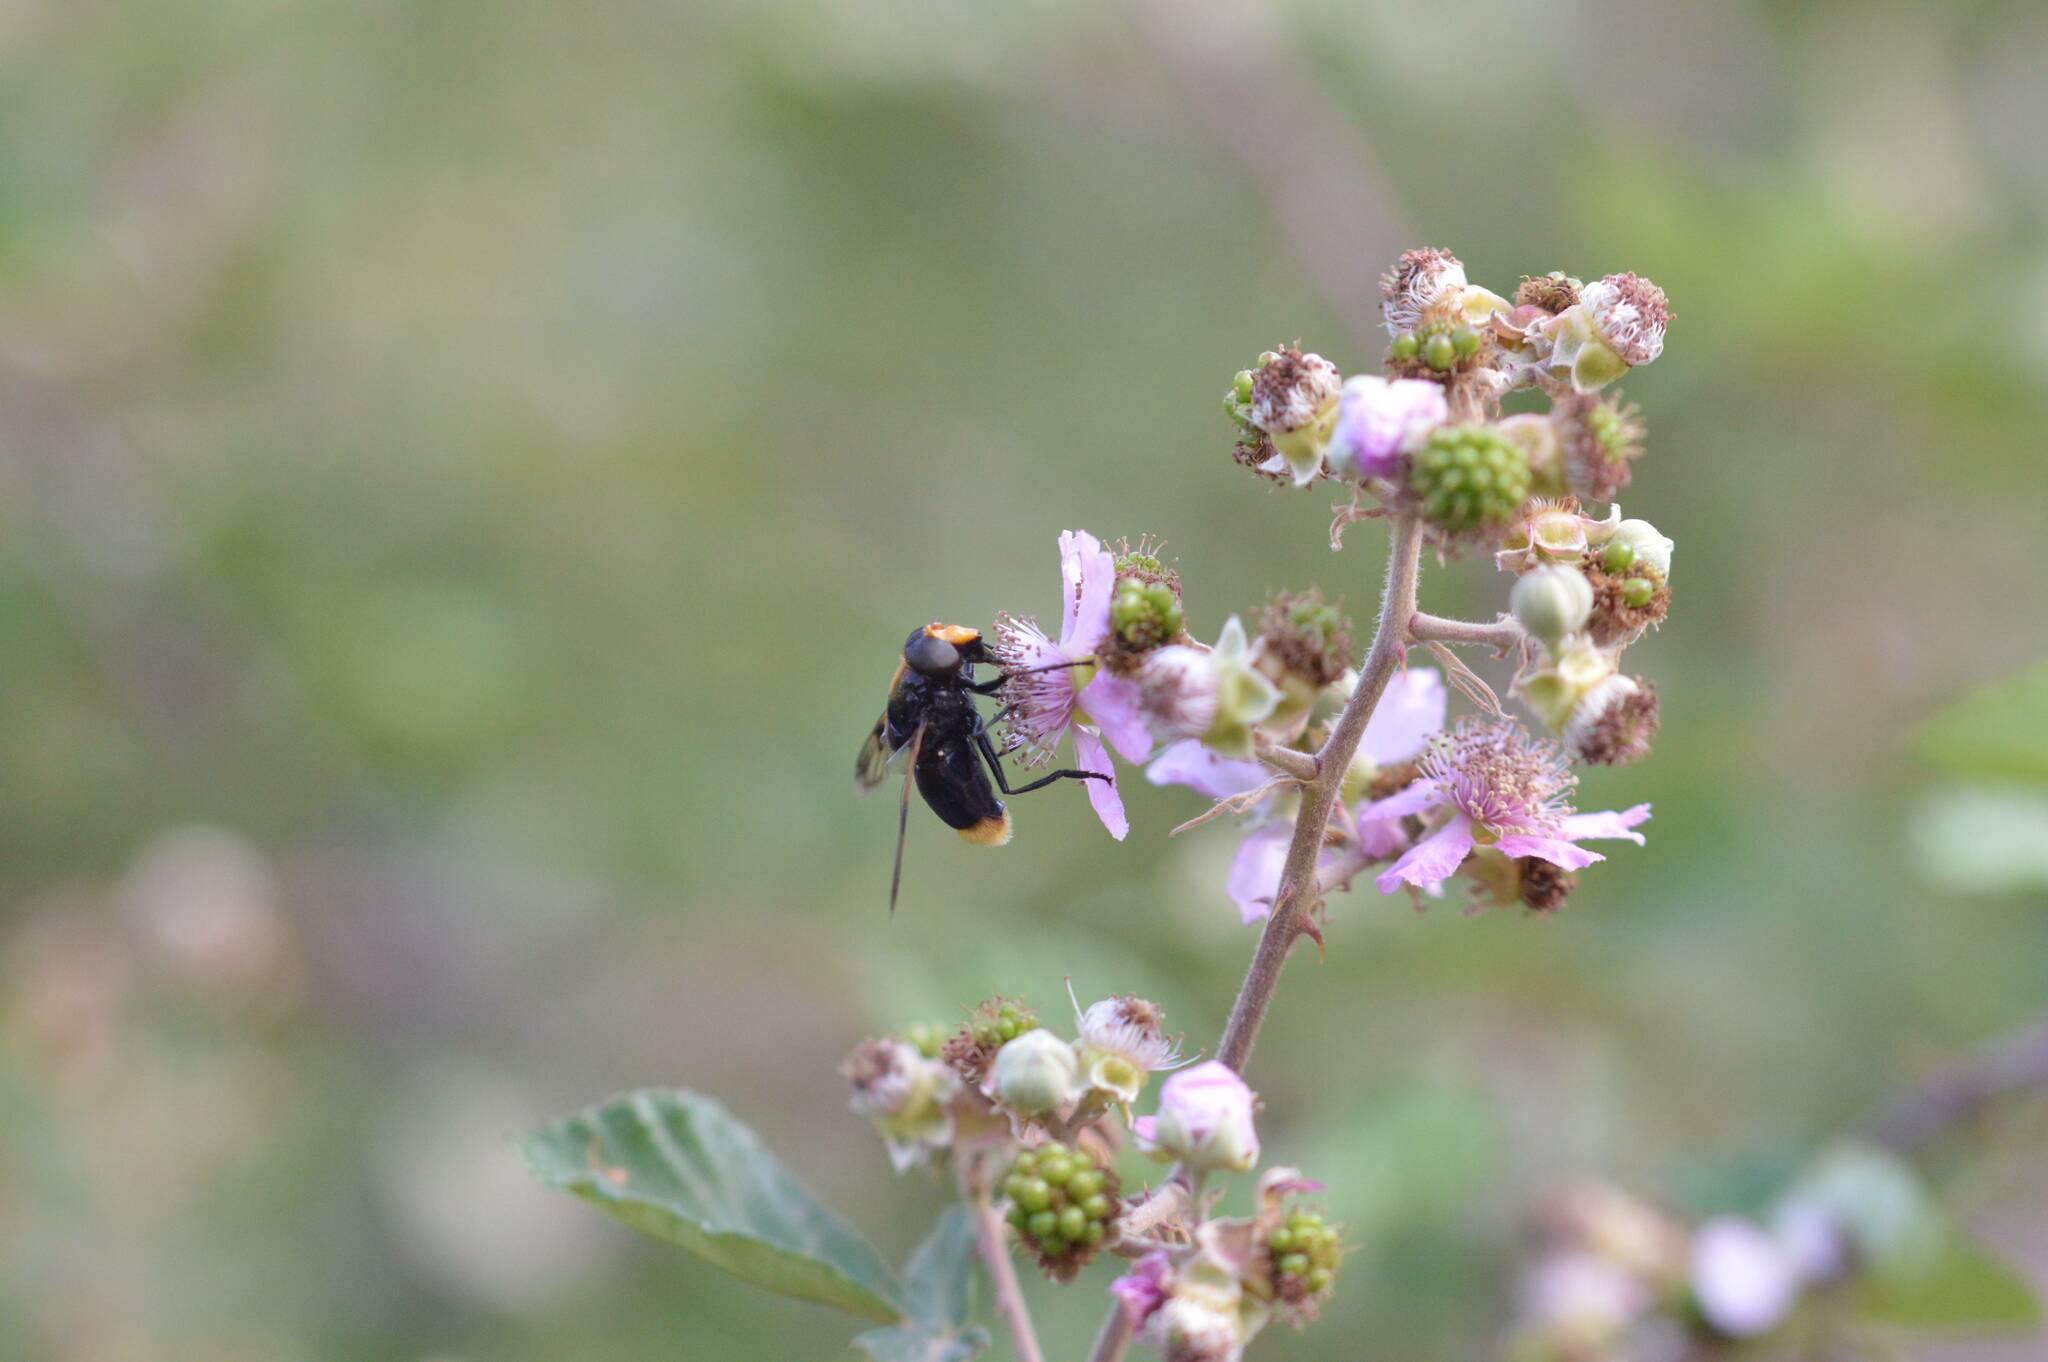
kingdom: Animalia
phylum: Arthropoda
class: Insecta
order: Diptera
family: Syrphidae
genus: Volucella
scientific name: Volucella liquida
